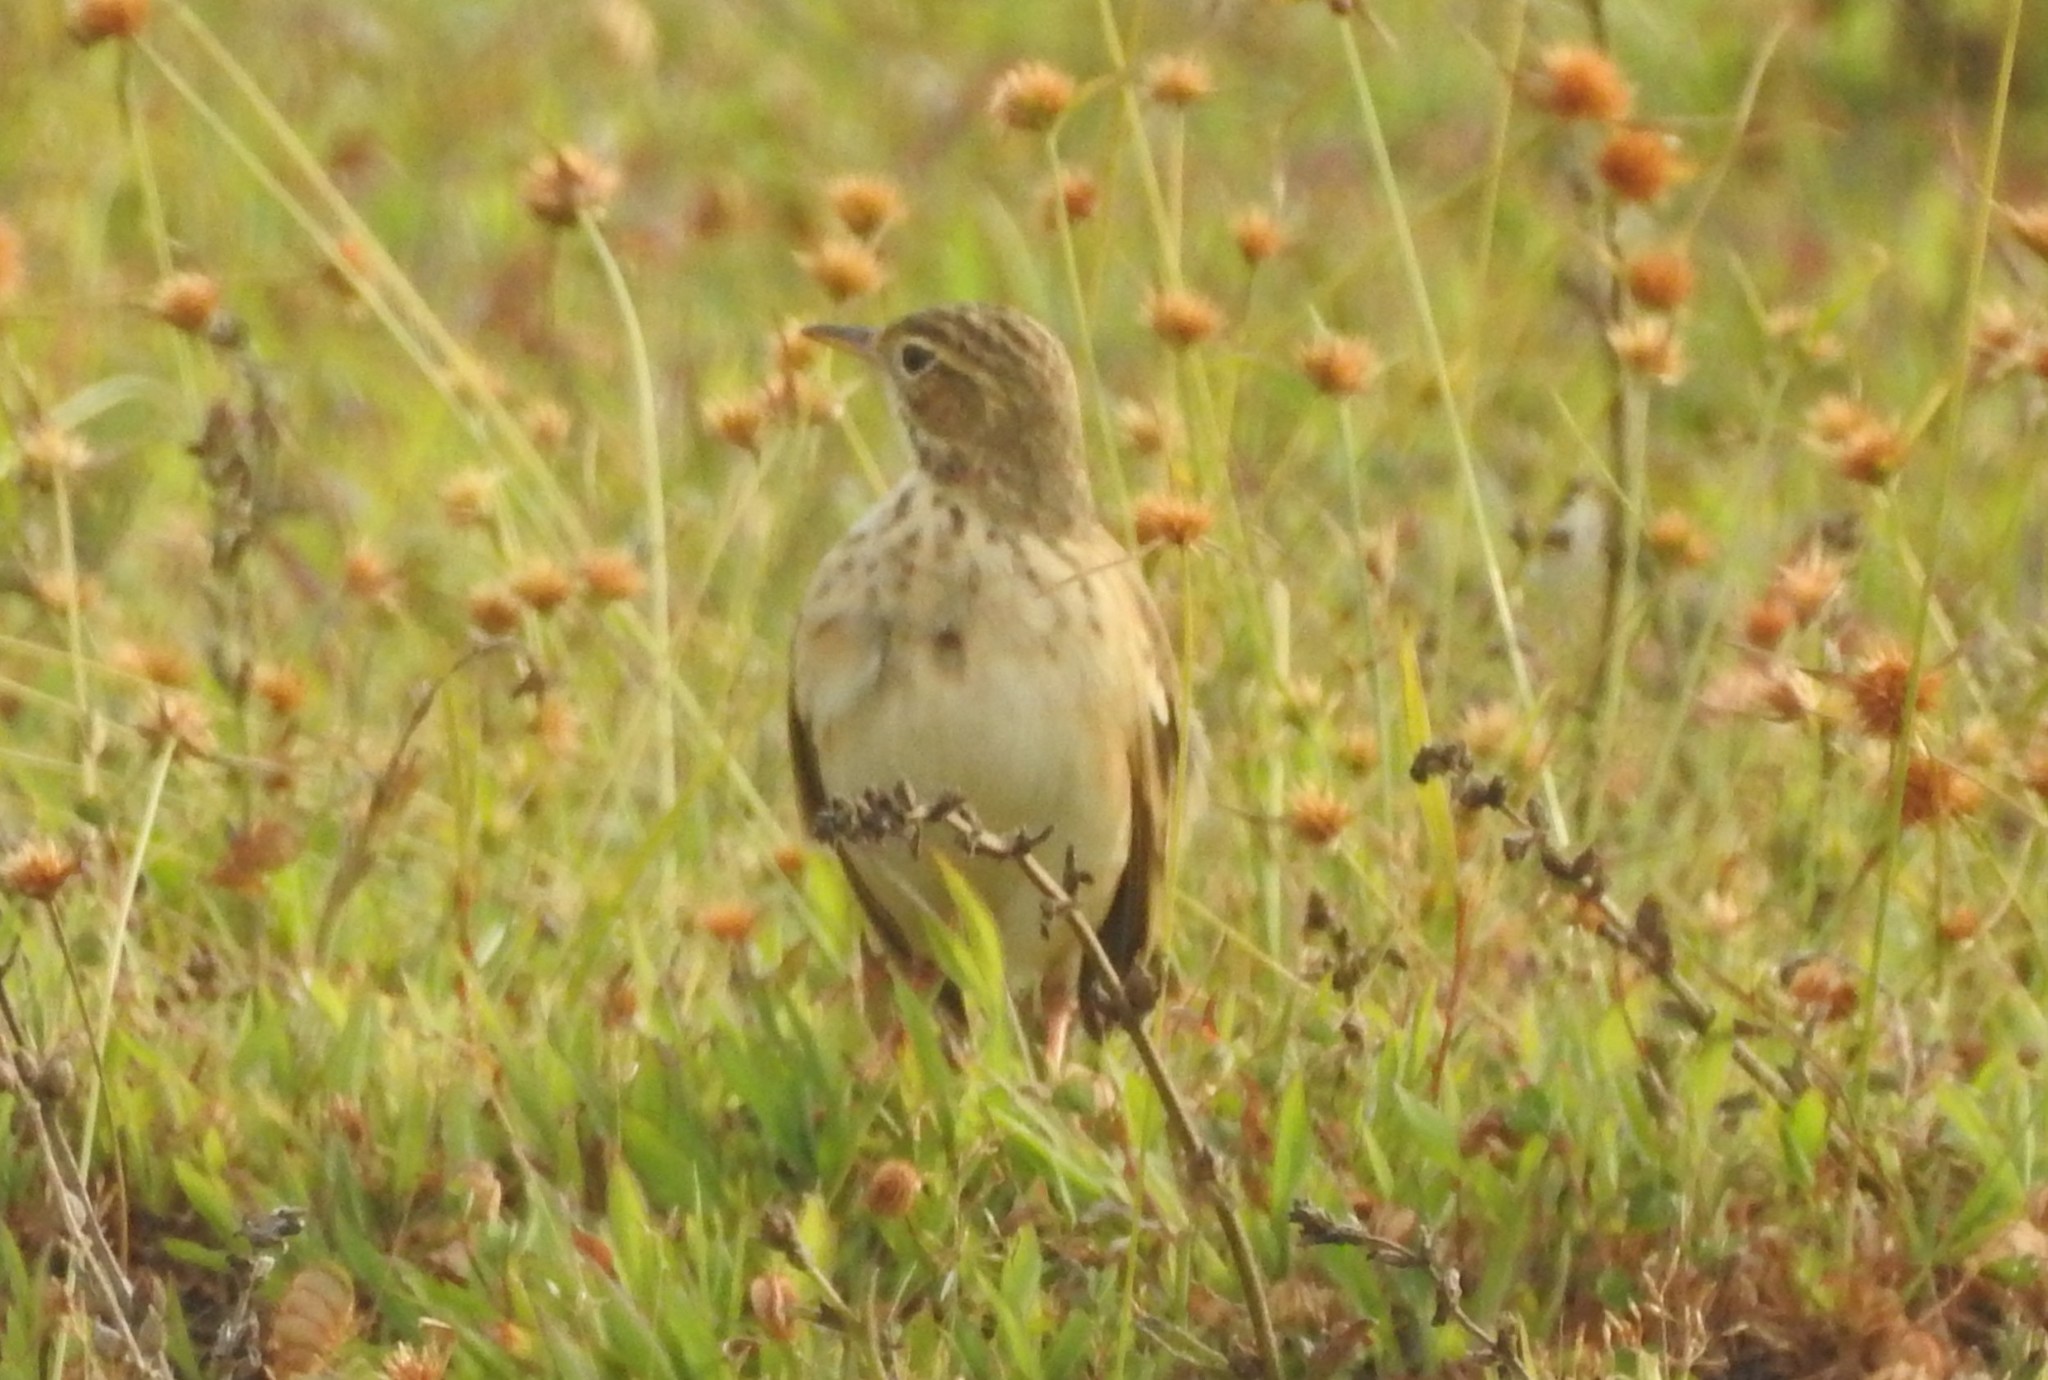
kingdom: Animalia
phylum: Chordata
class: Aves
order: Passeriformes
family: Motacillidae
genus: Anthus
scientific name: Anthus rufulus
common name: Paddyfield pipit
